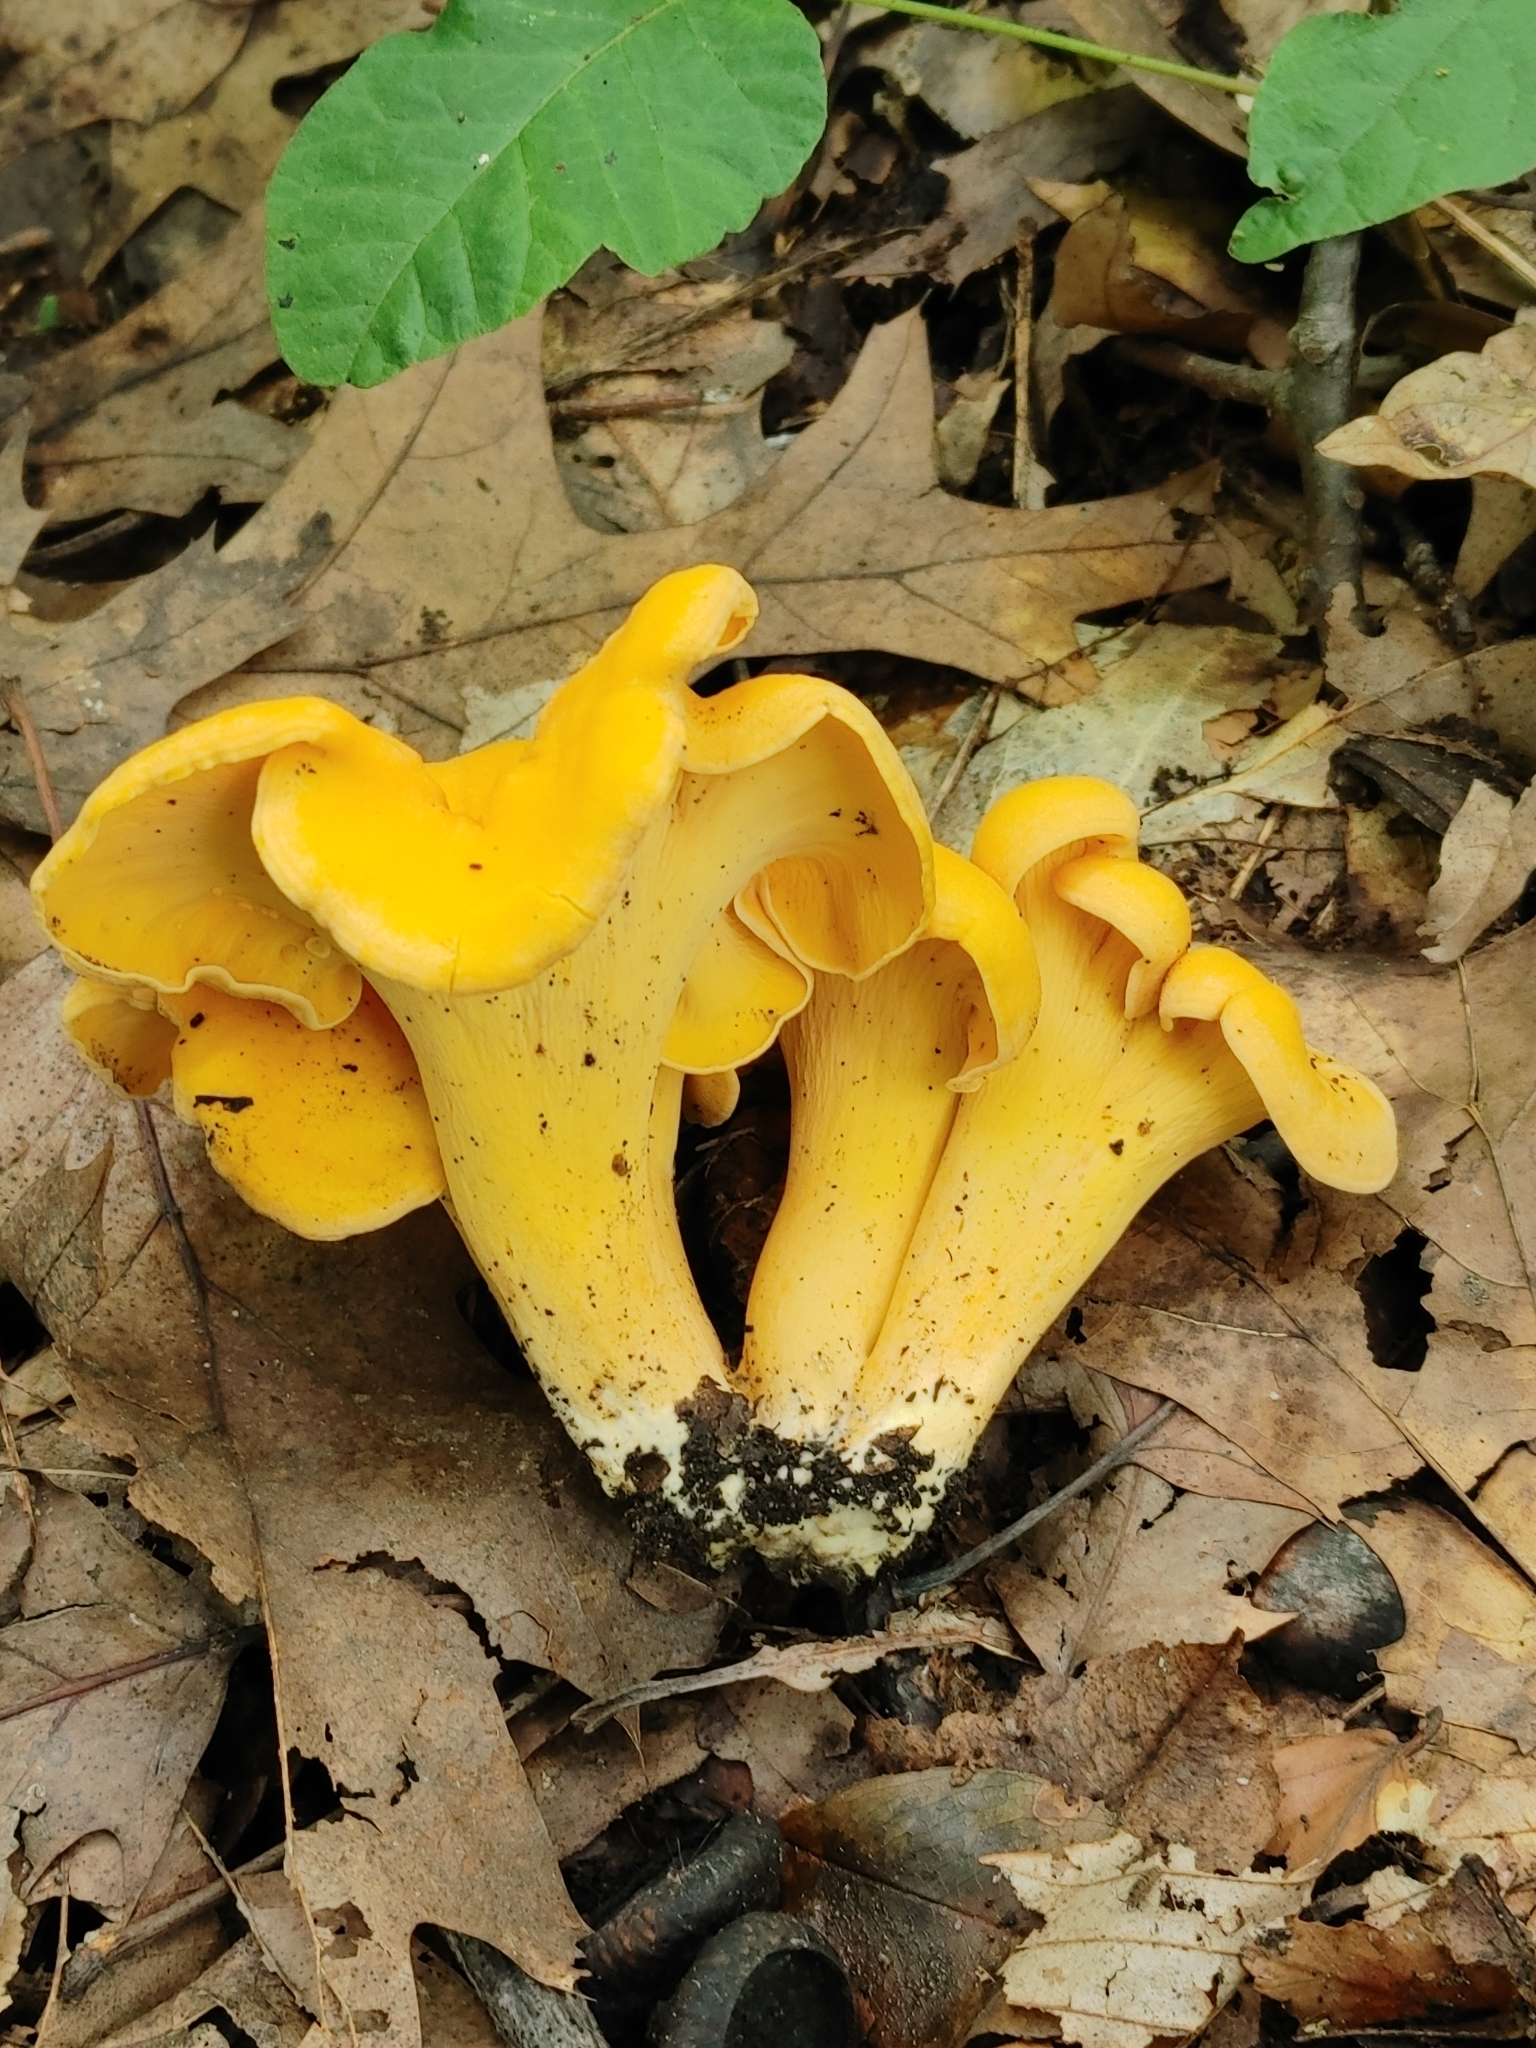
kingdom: Fungi
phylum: Basidiomycota
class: Agaricomycetes
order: Cantharellales
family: Hydnaceae
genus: Cantharellus
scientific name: Cantharellus lateritius
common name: Smooth chanterelle
